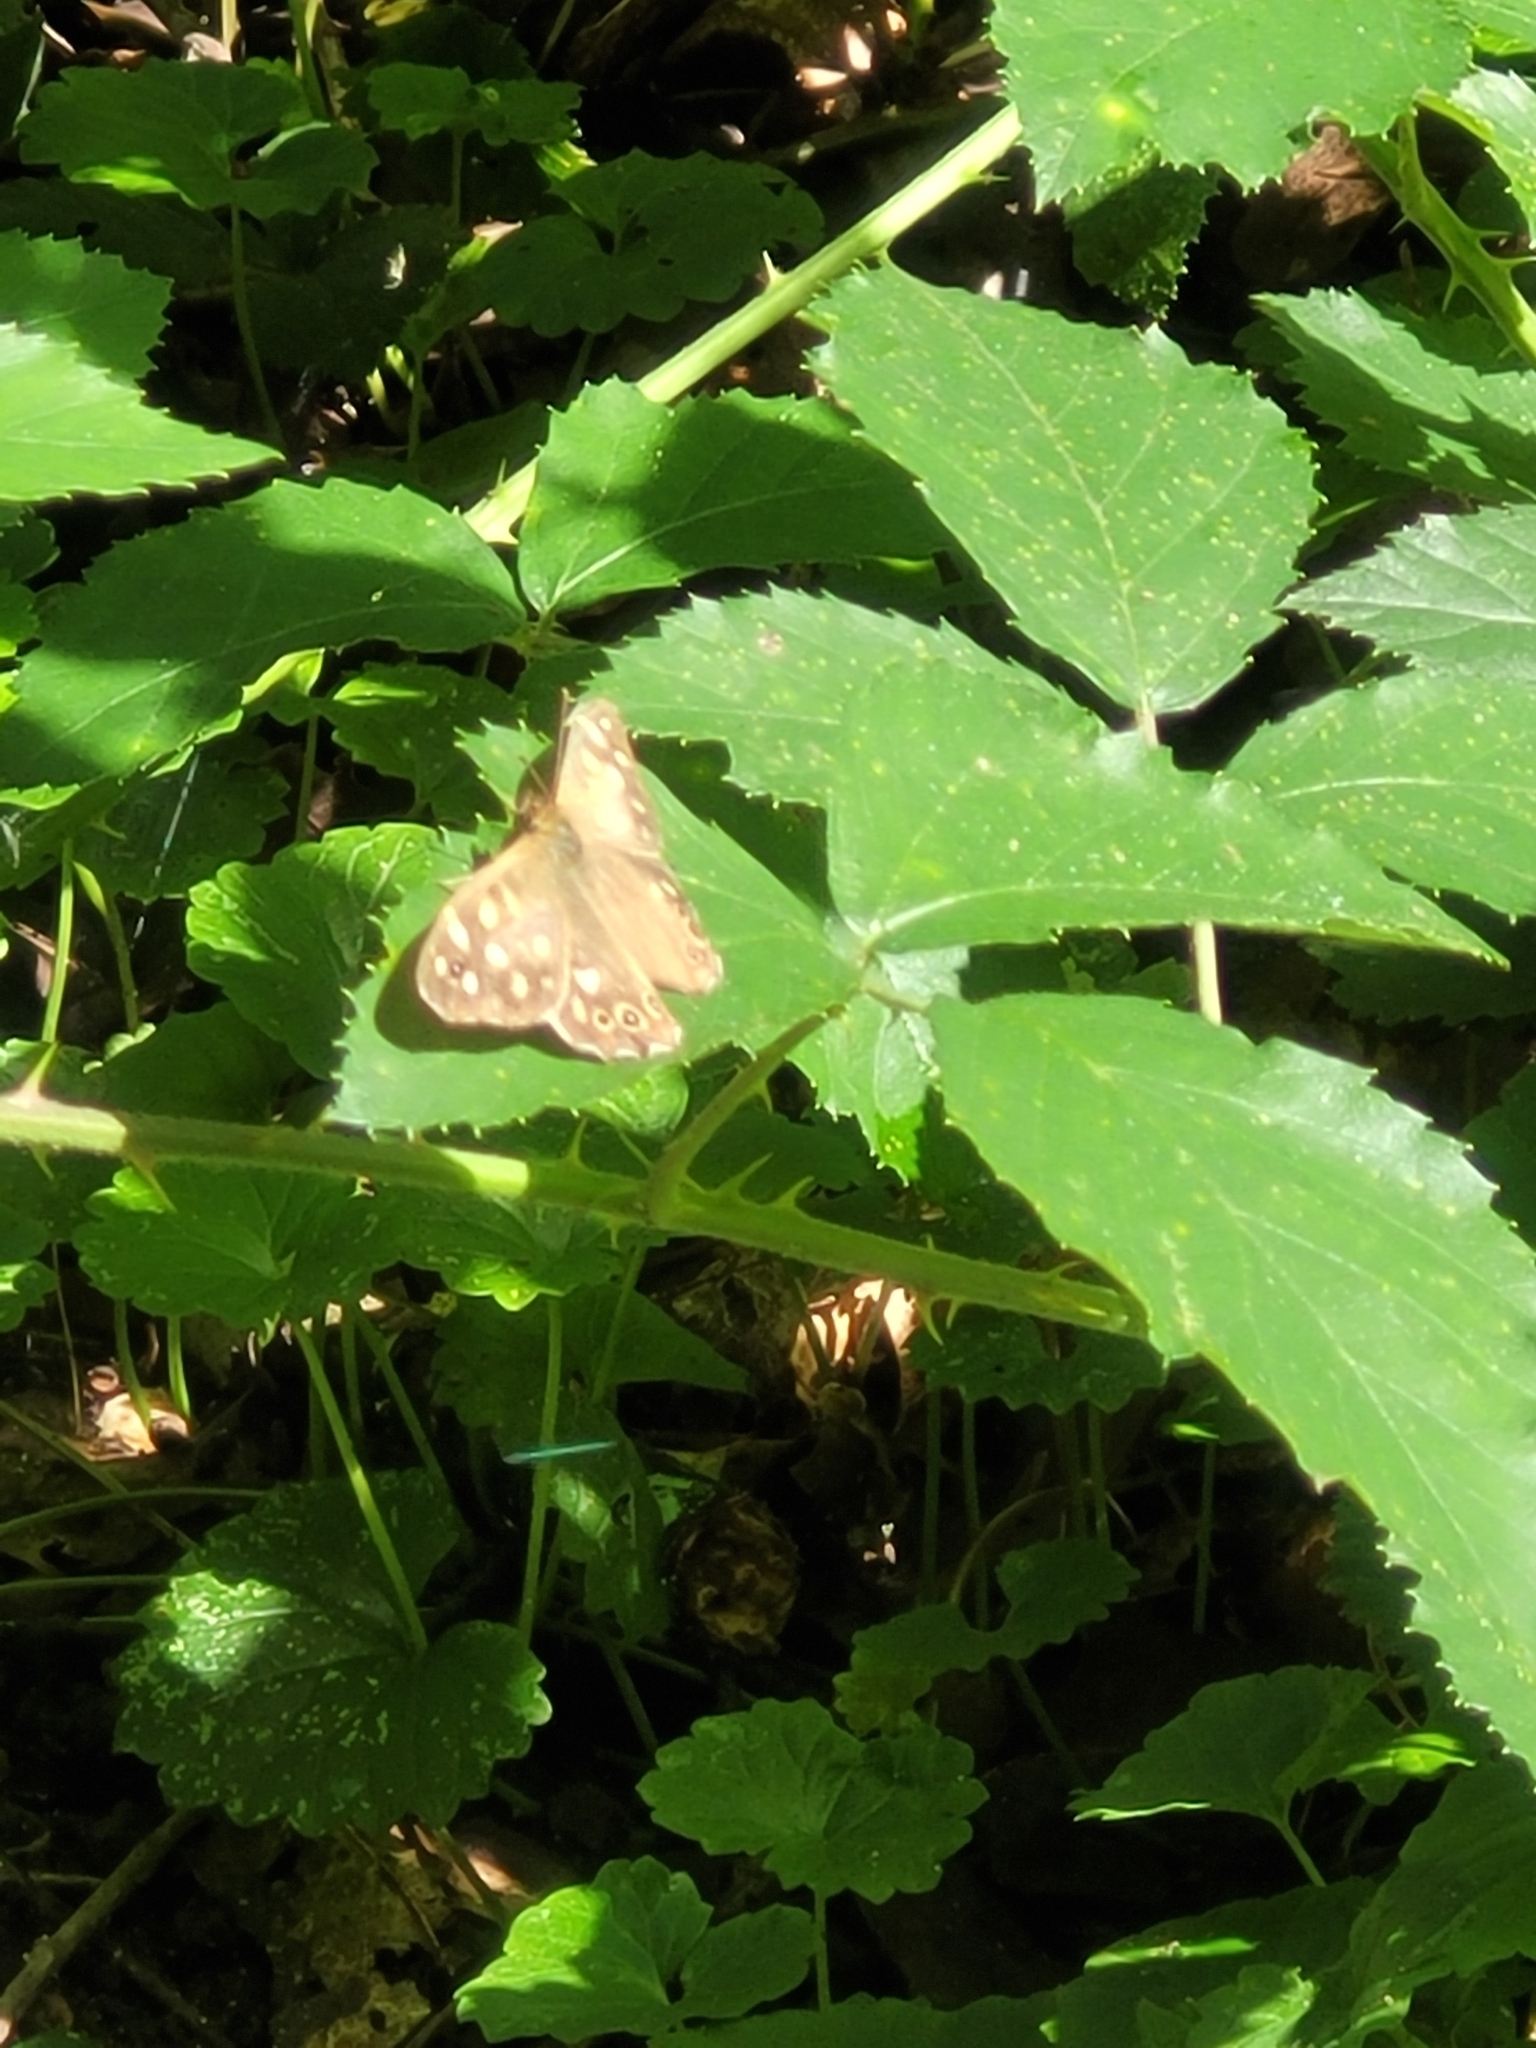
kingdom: Animalia
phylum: Arthropoda
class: Insecta
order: Lepidoptera
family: Nymphalidae
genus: Pararge
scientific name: Pararge aegeria
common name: Speckled wood
